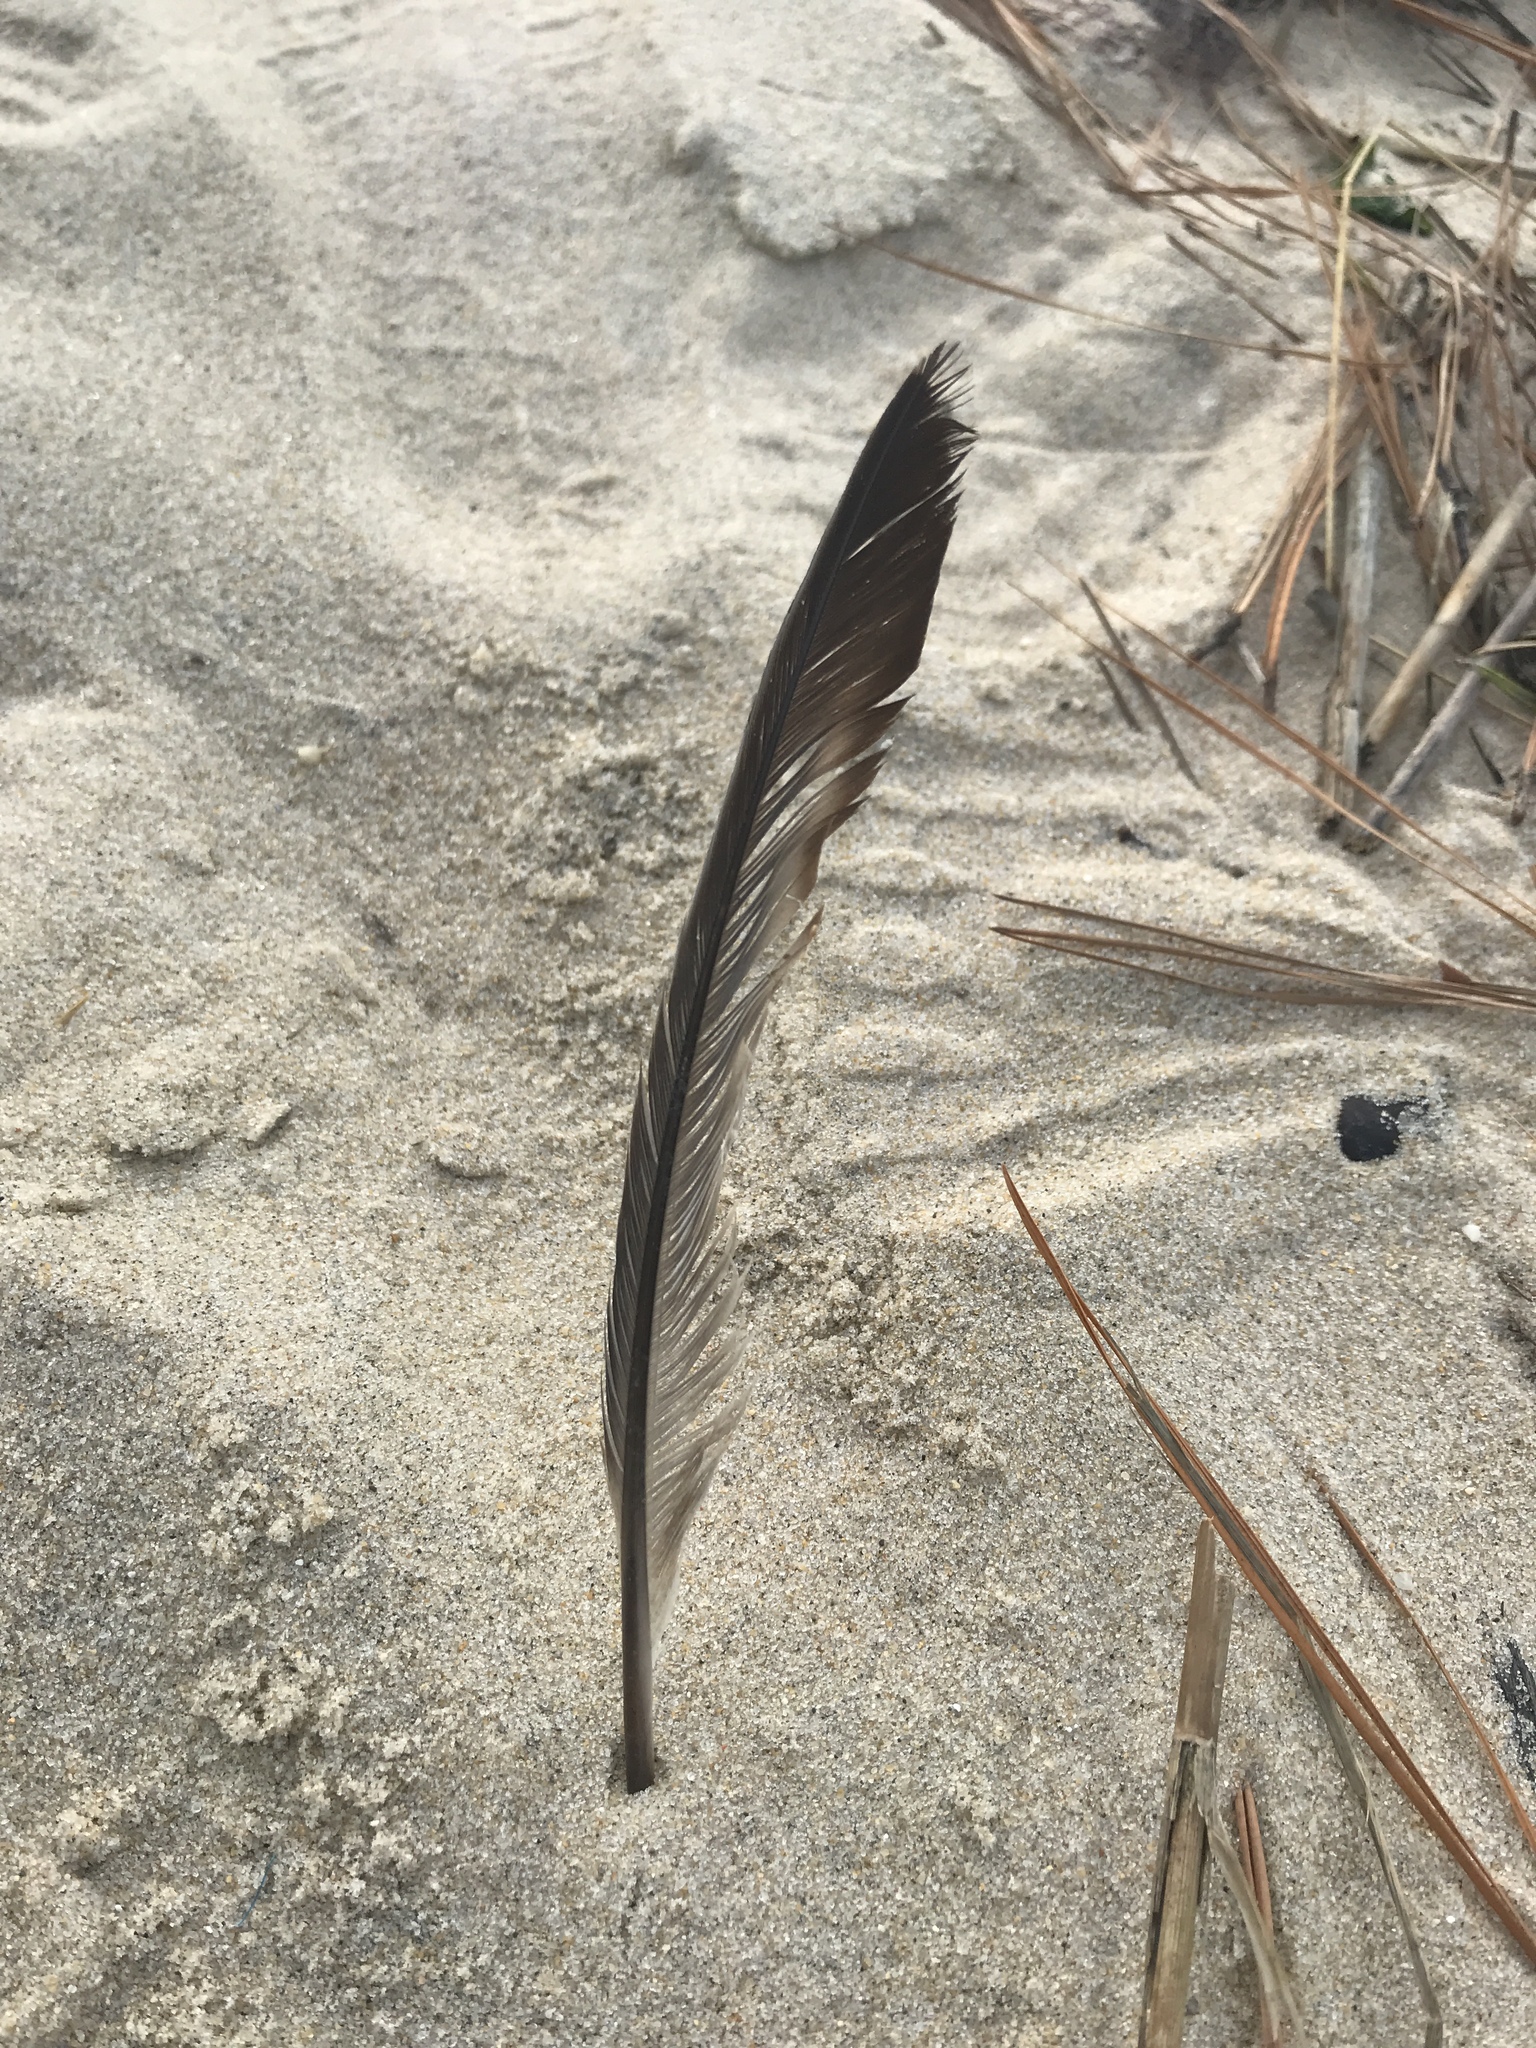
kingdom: Animalia
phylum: Chordata
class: Aves
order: Columbiformes
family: Columbidae
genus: Columba
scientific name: Columba livia
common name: Rock pigeon
